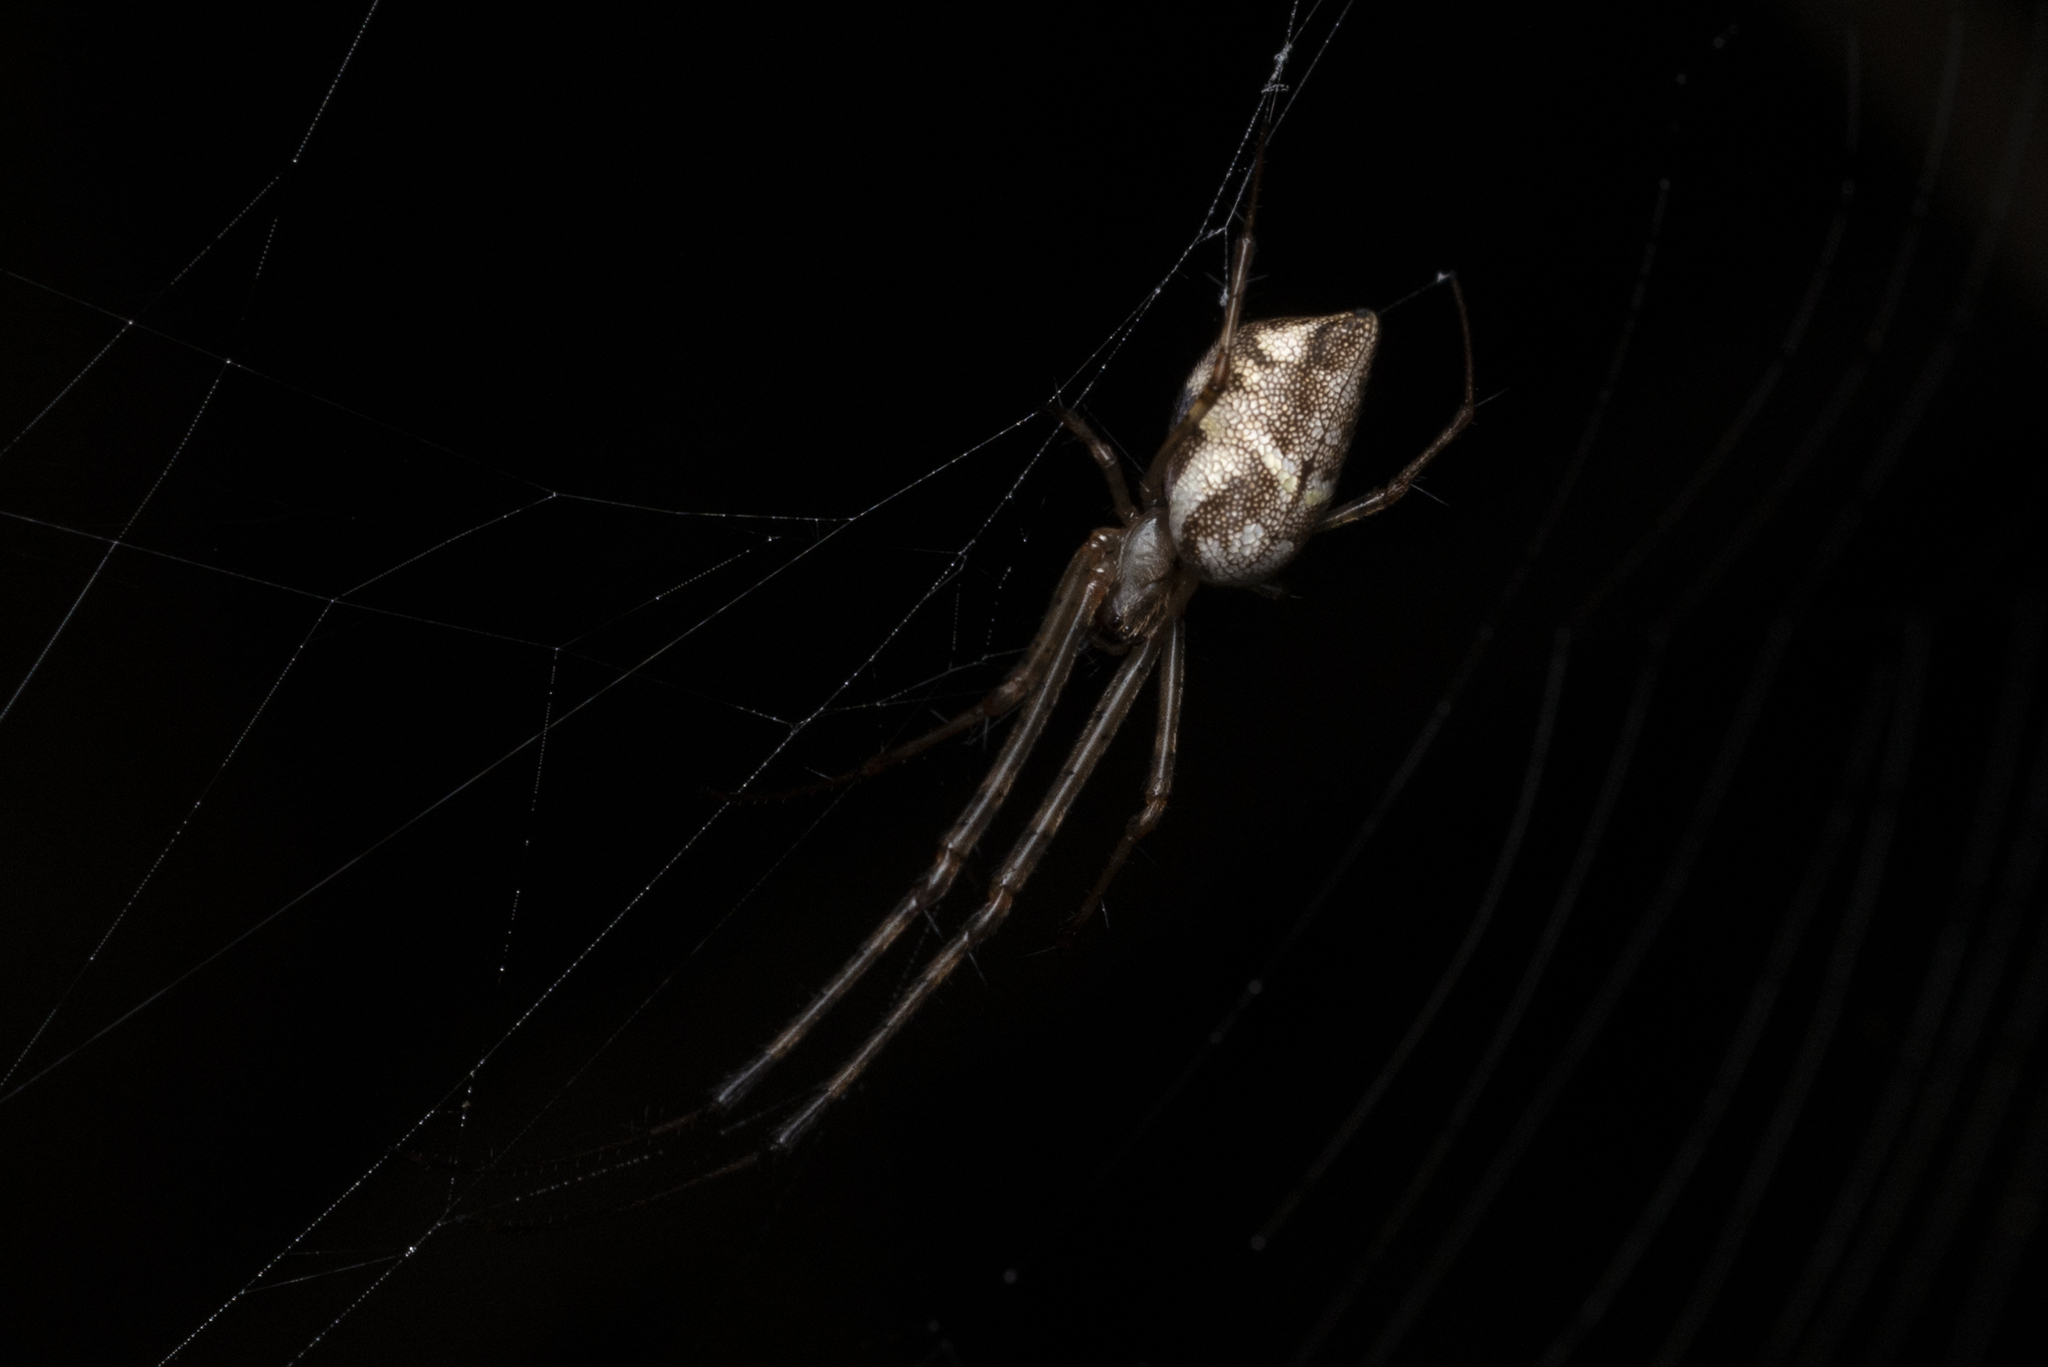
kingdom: Animalia
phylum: Arthropoda
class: Arachnida
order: Araneae
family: Tetragnathidae
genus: Tylorida
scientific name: Tylorida ventralis
